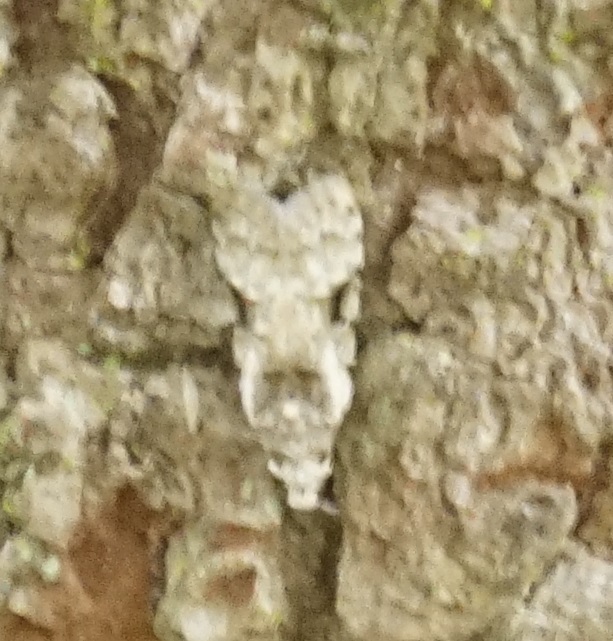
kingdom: Animalia
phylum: Arthropoda
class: Insecta
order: Lepidoptera
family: Carposinidae
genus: Coscinoptycha
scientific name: Coscinoptycha improbana
